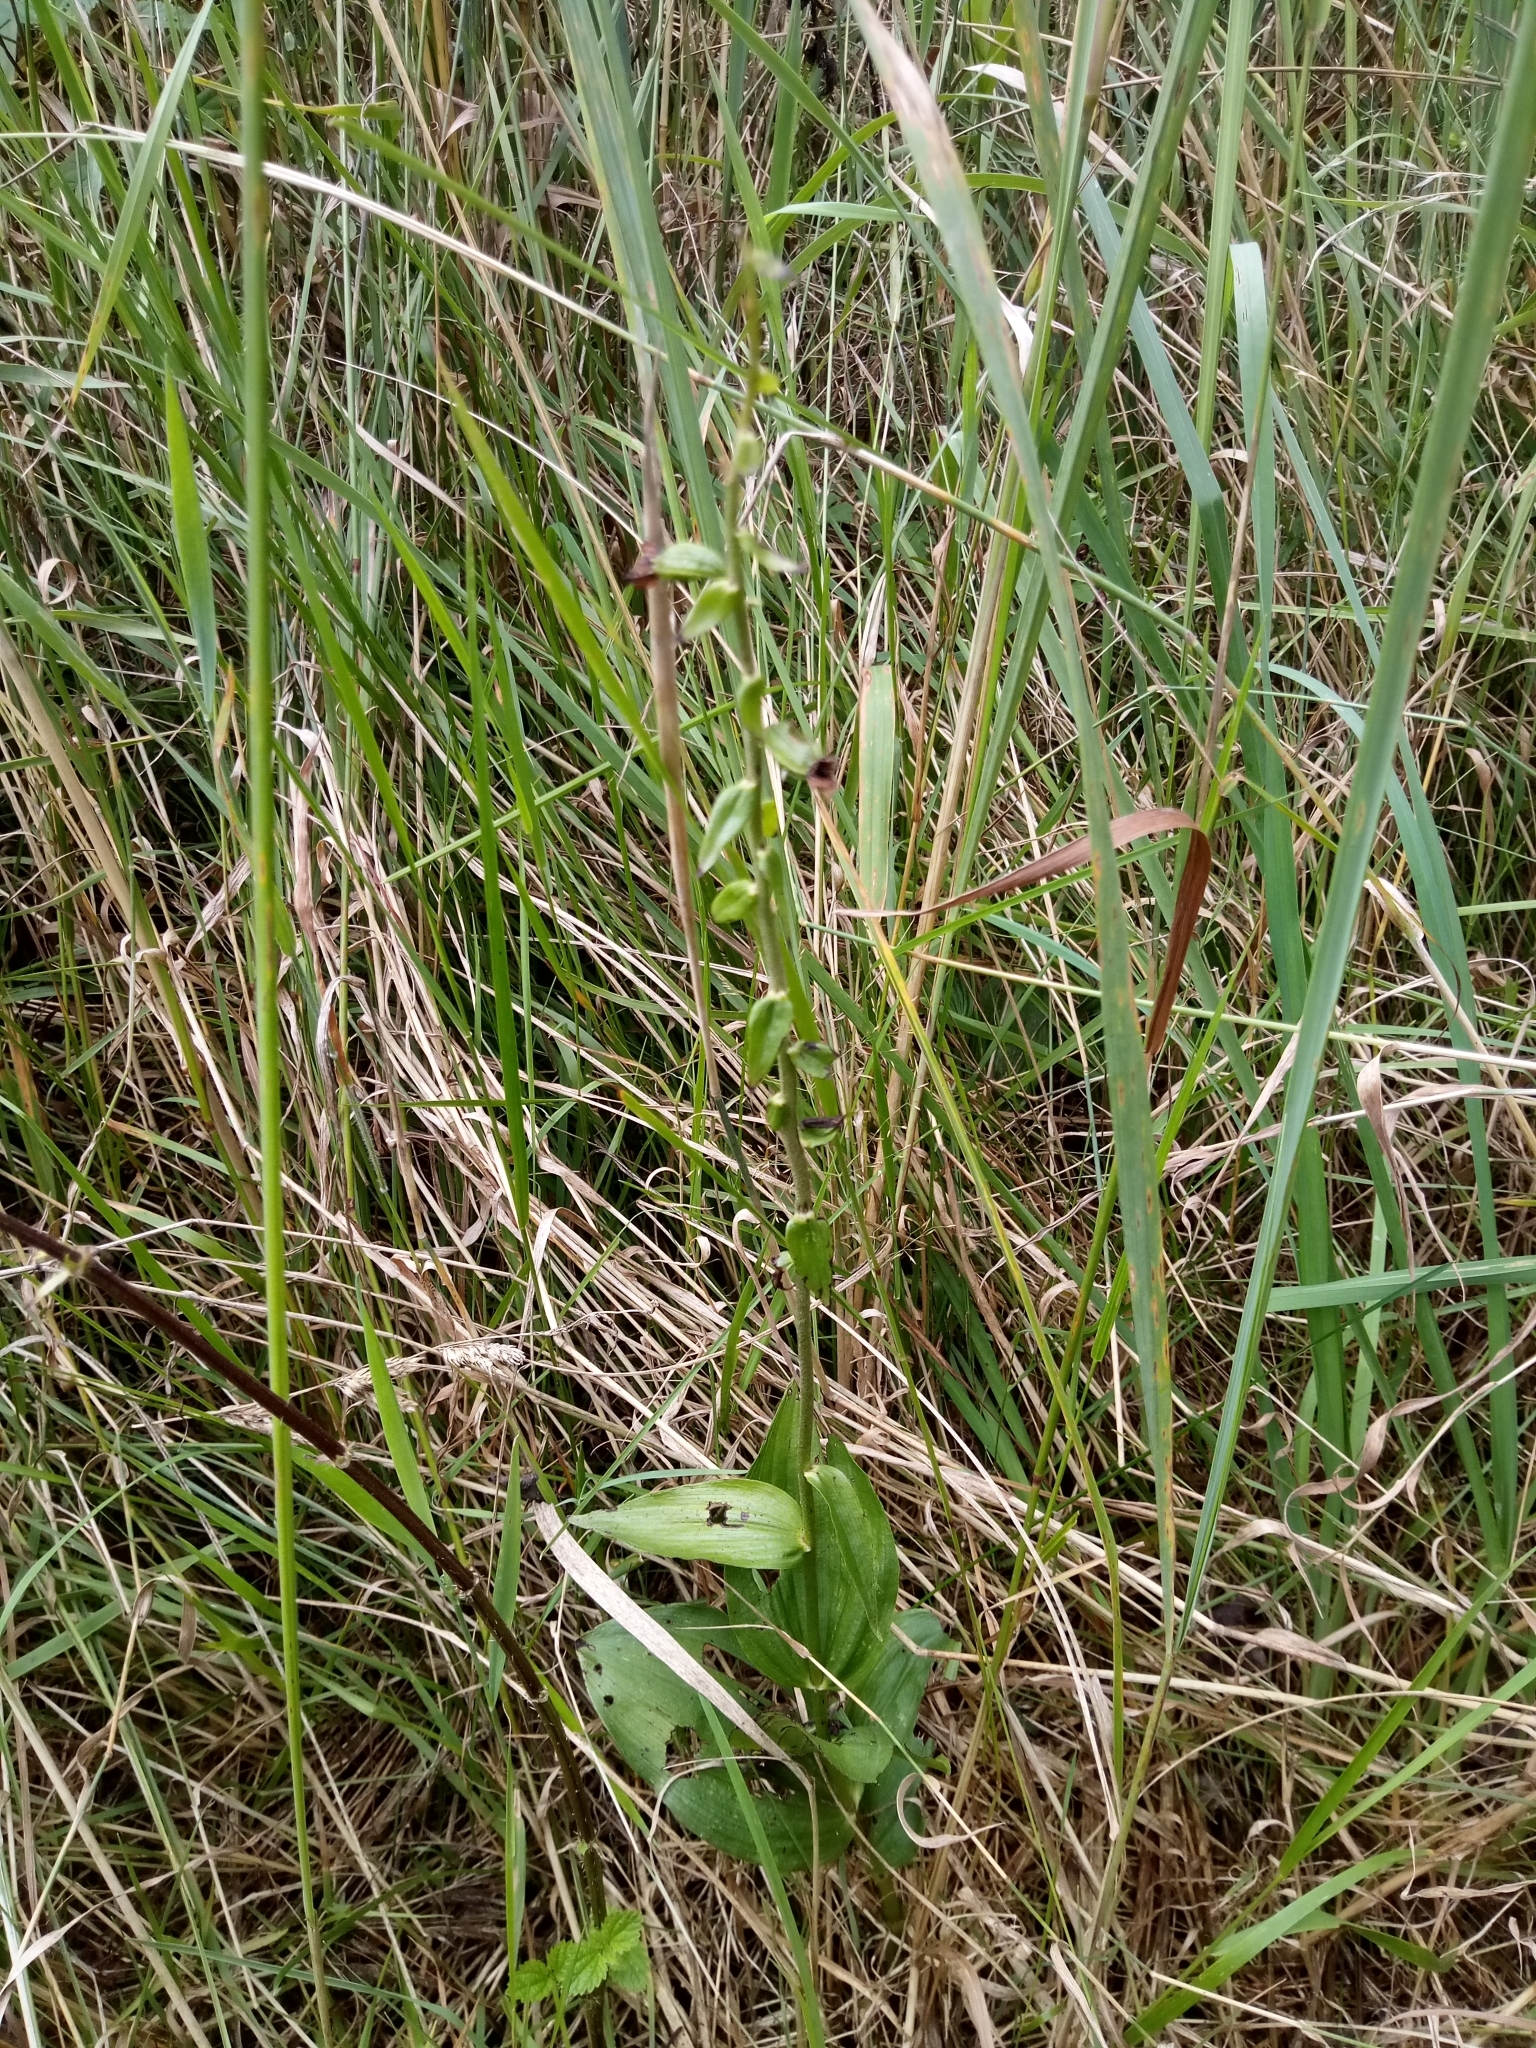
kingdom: Plantae
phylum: Tracheophyta
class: Liliopsida
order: Asparagales
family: Orchidaceae
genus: Epipactis
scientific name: Epipactis helleborine
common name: Broad-leaved helleborine
